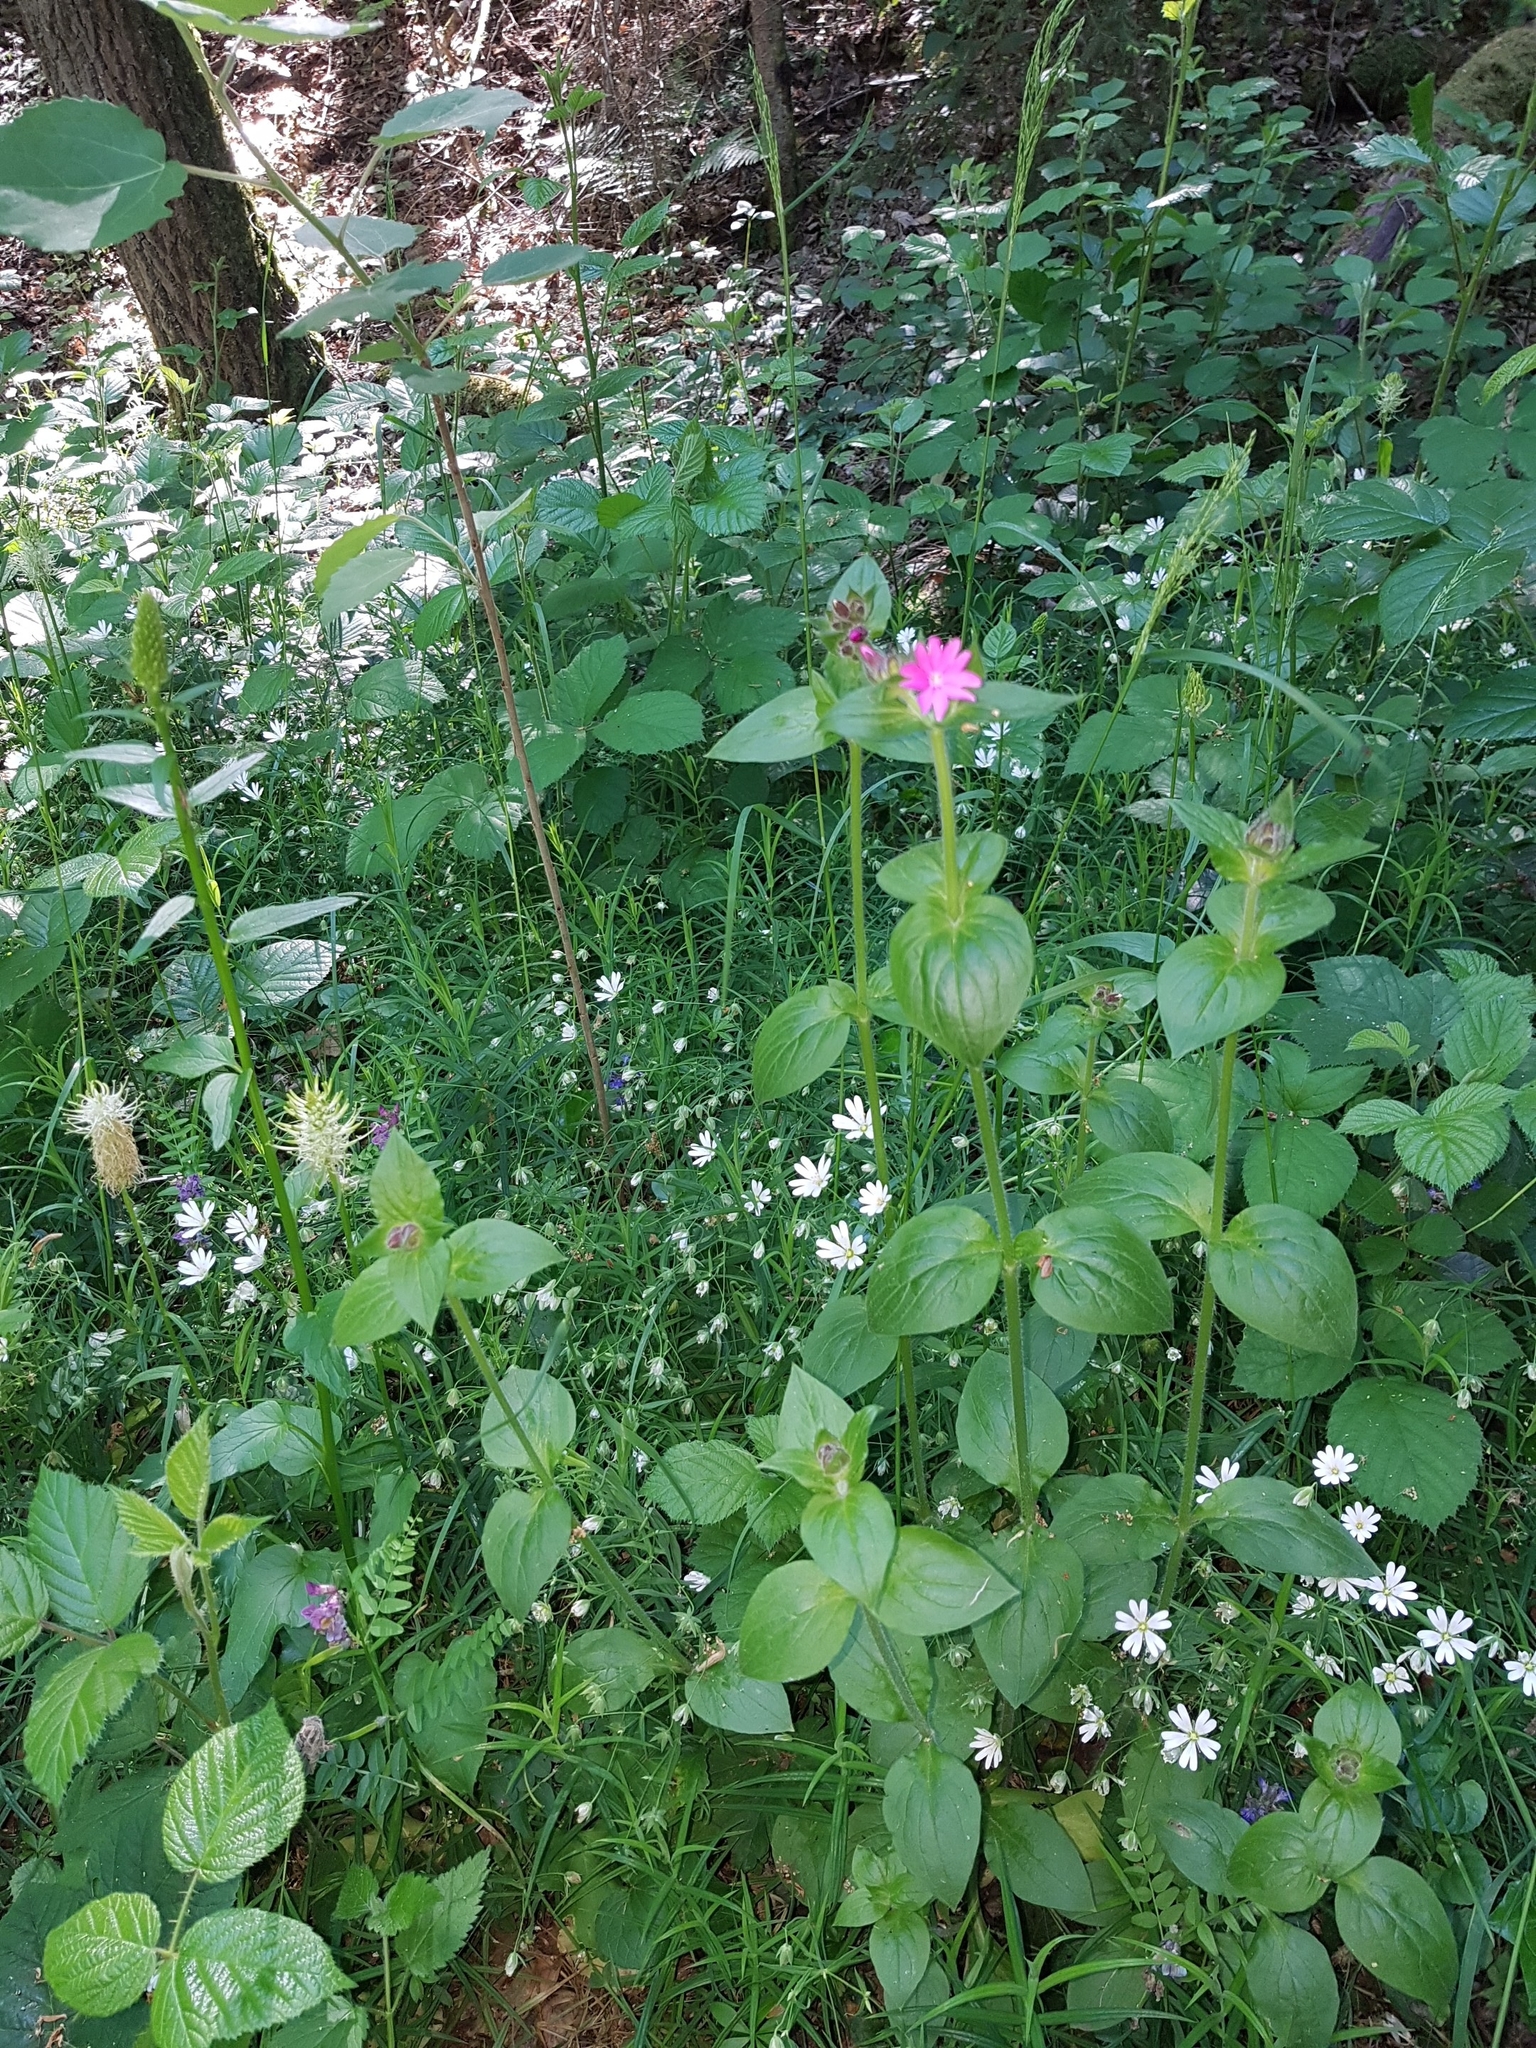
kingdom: Plantae
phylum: Tracheophyta
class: Magnoliopsida
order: Caryophyllales
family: Caryophyllaceae
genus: Silene
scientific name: Silene dioica
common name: Red campion
